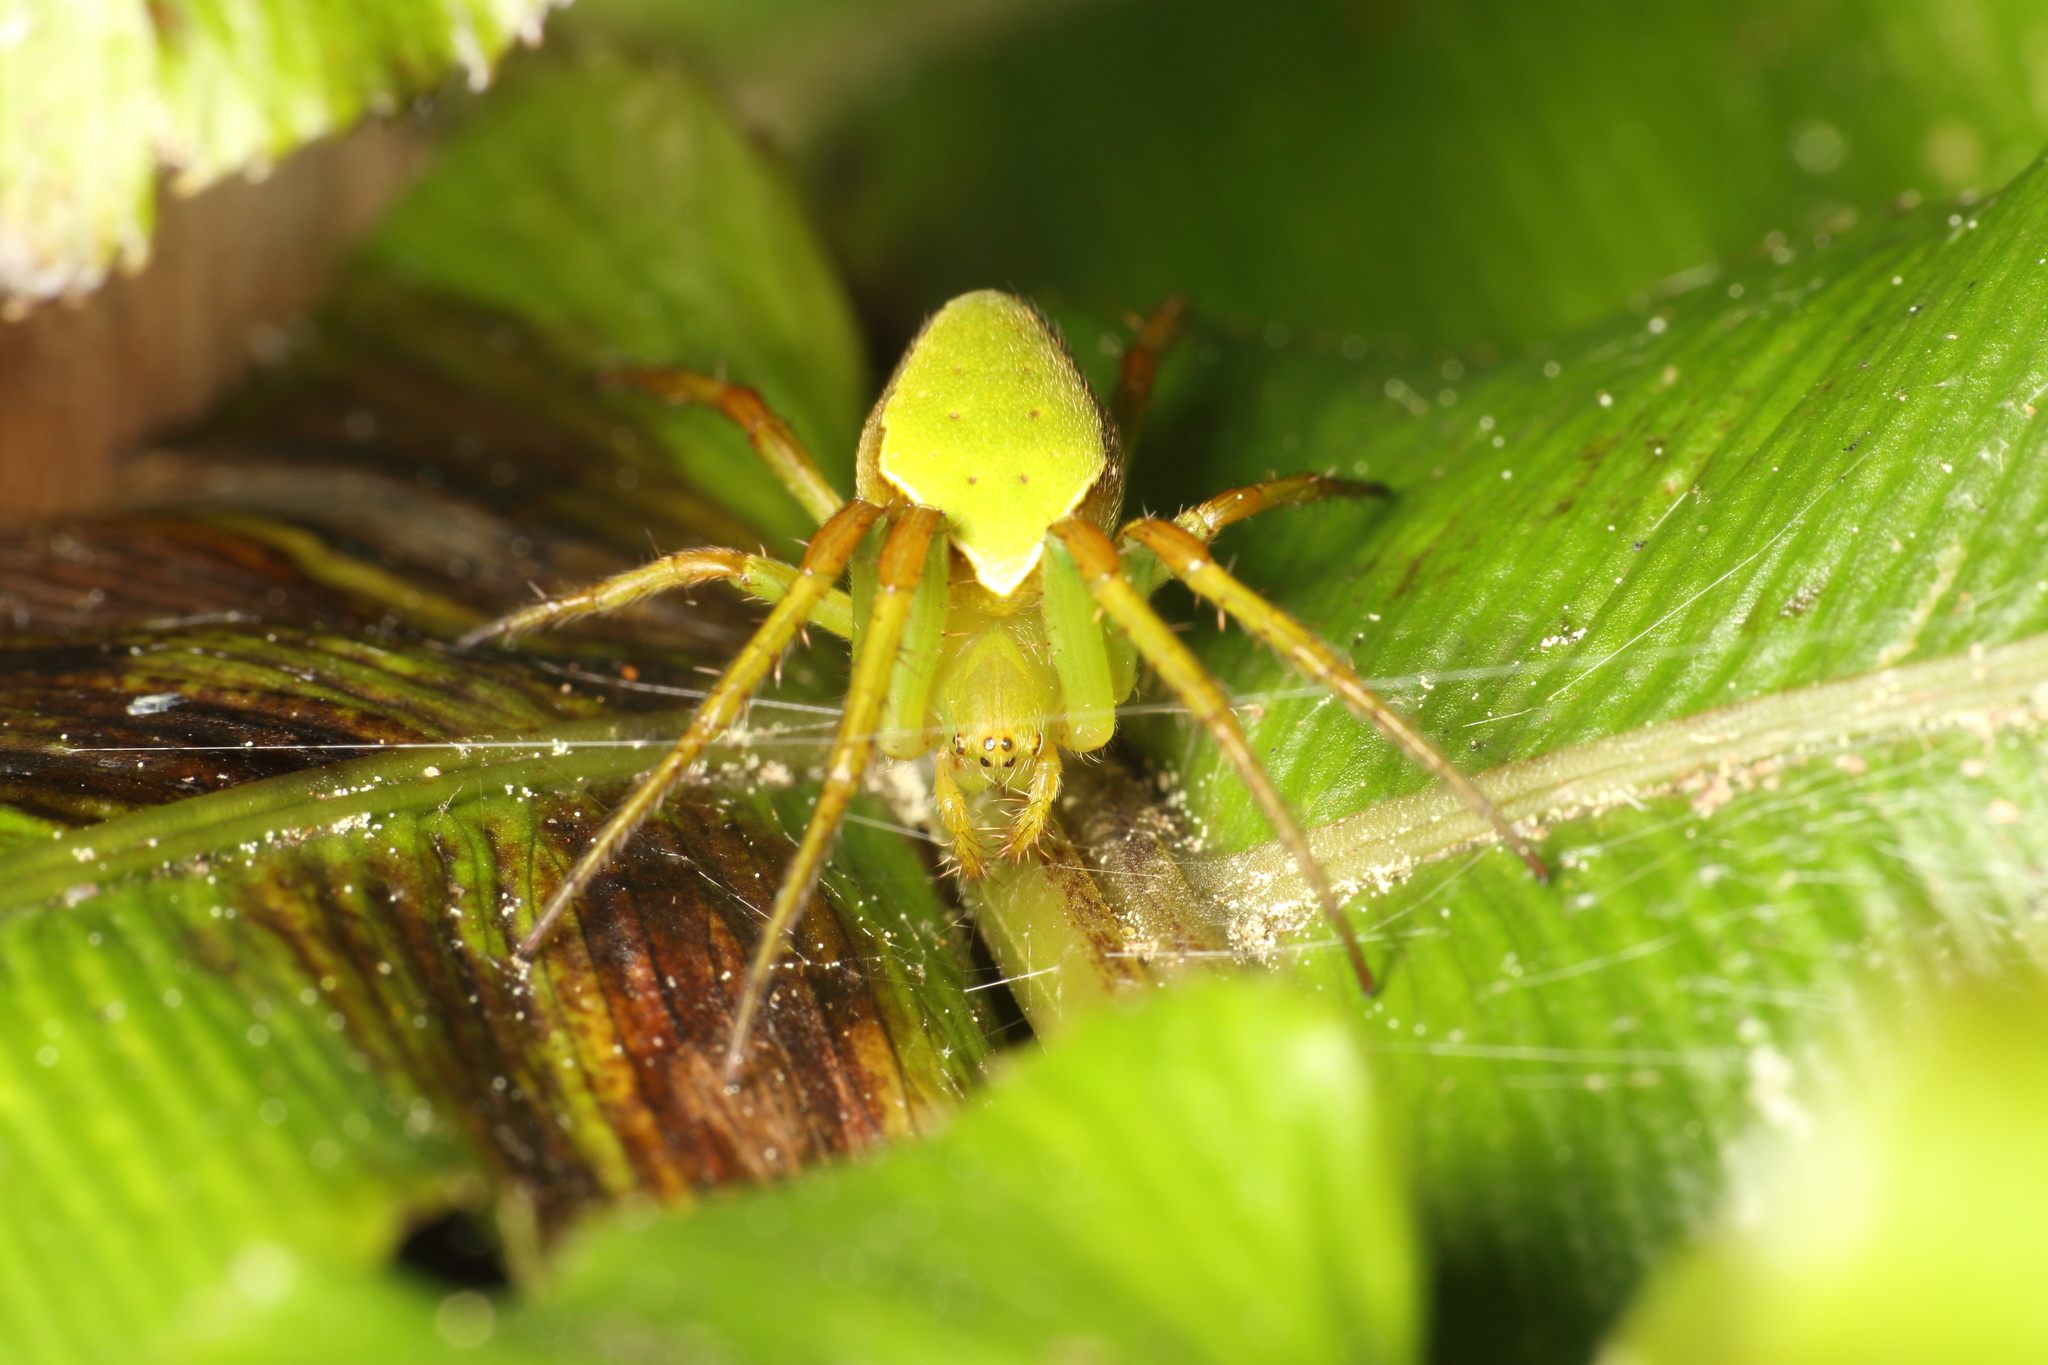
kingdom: Animalia
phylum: Arthropoda
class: Arachnida
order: Araneae
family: Araneidae
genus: Colaranea
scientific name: Colaranea viriditas
